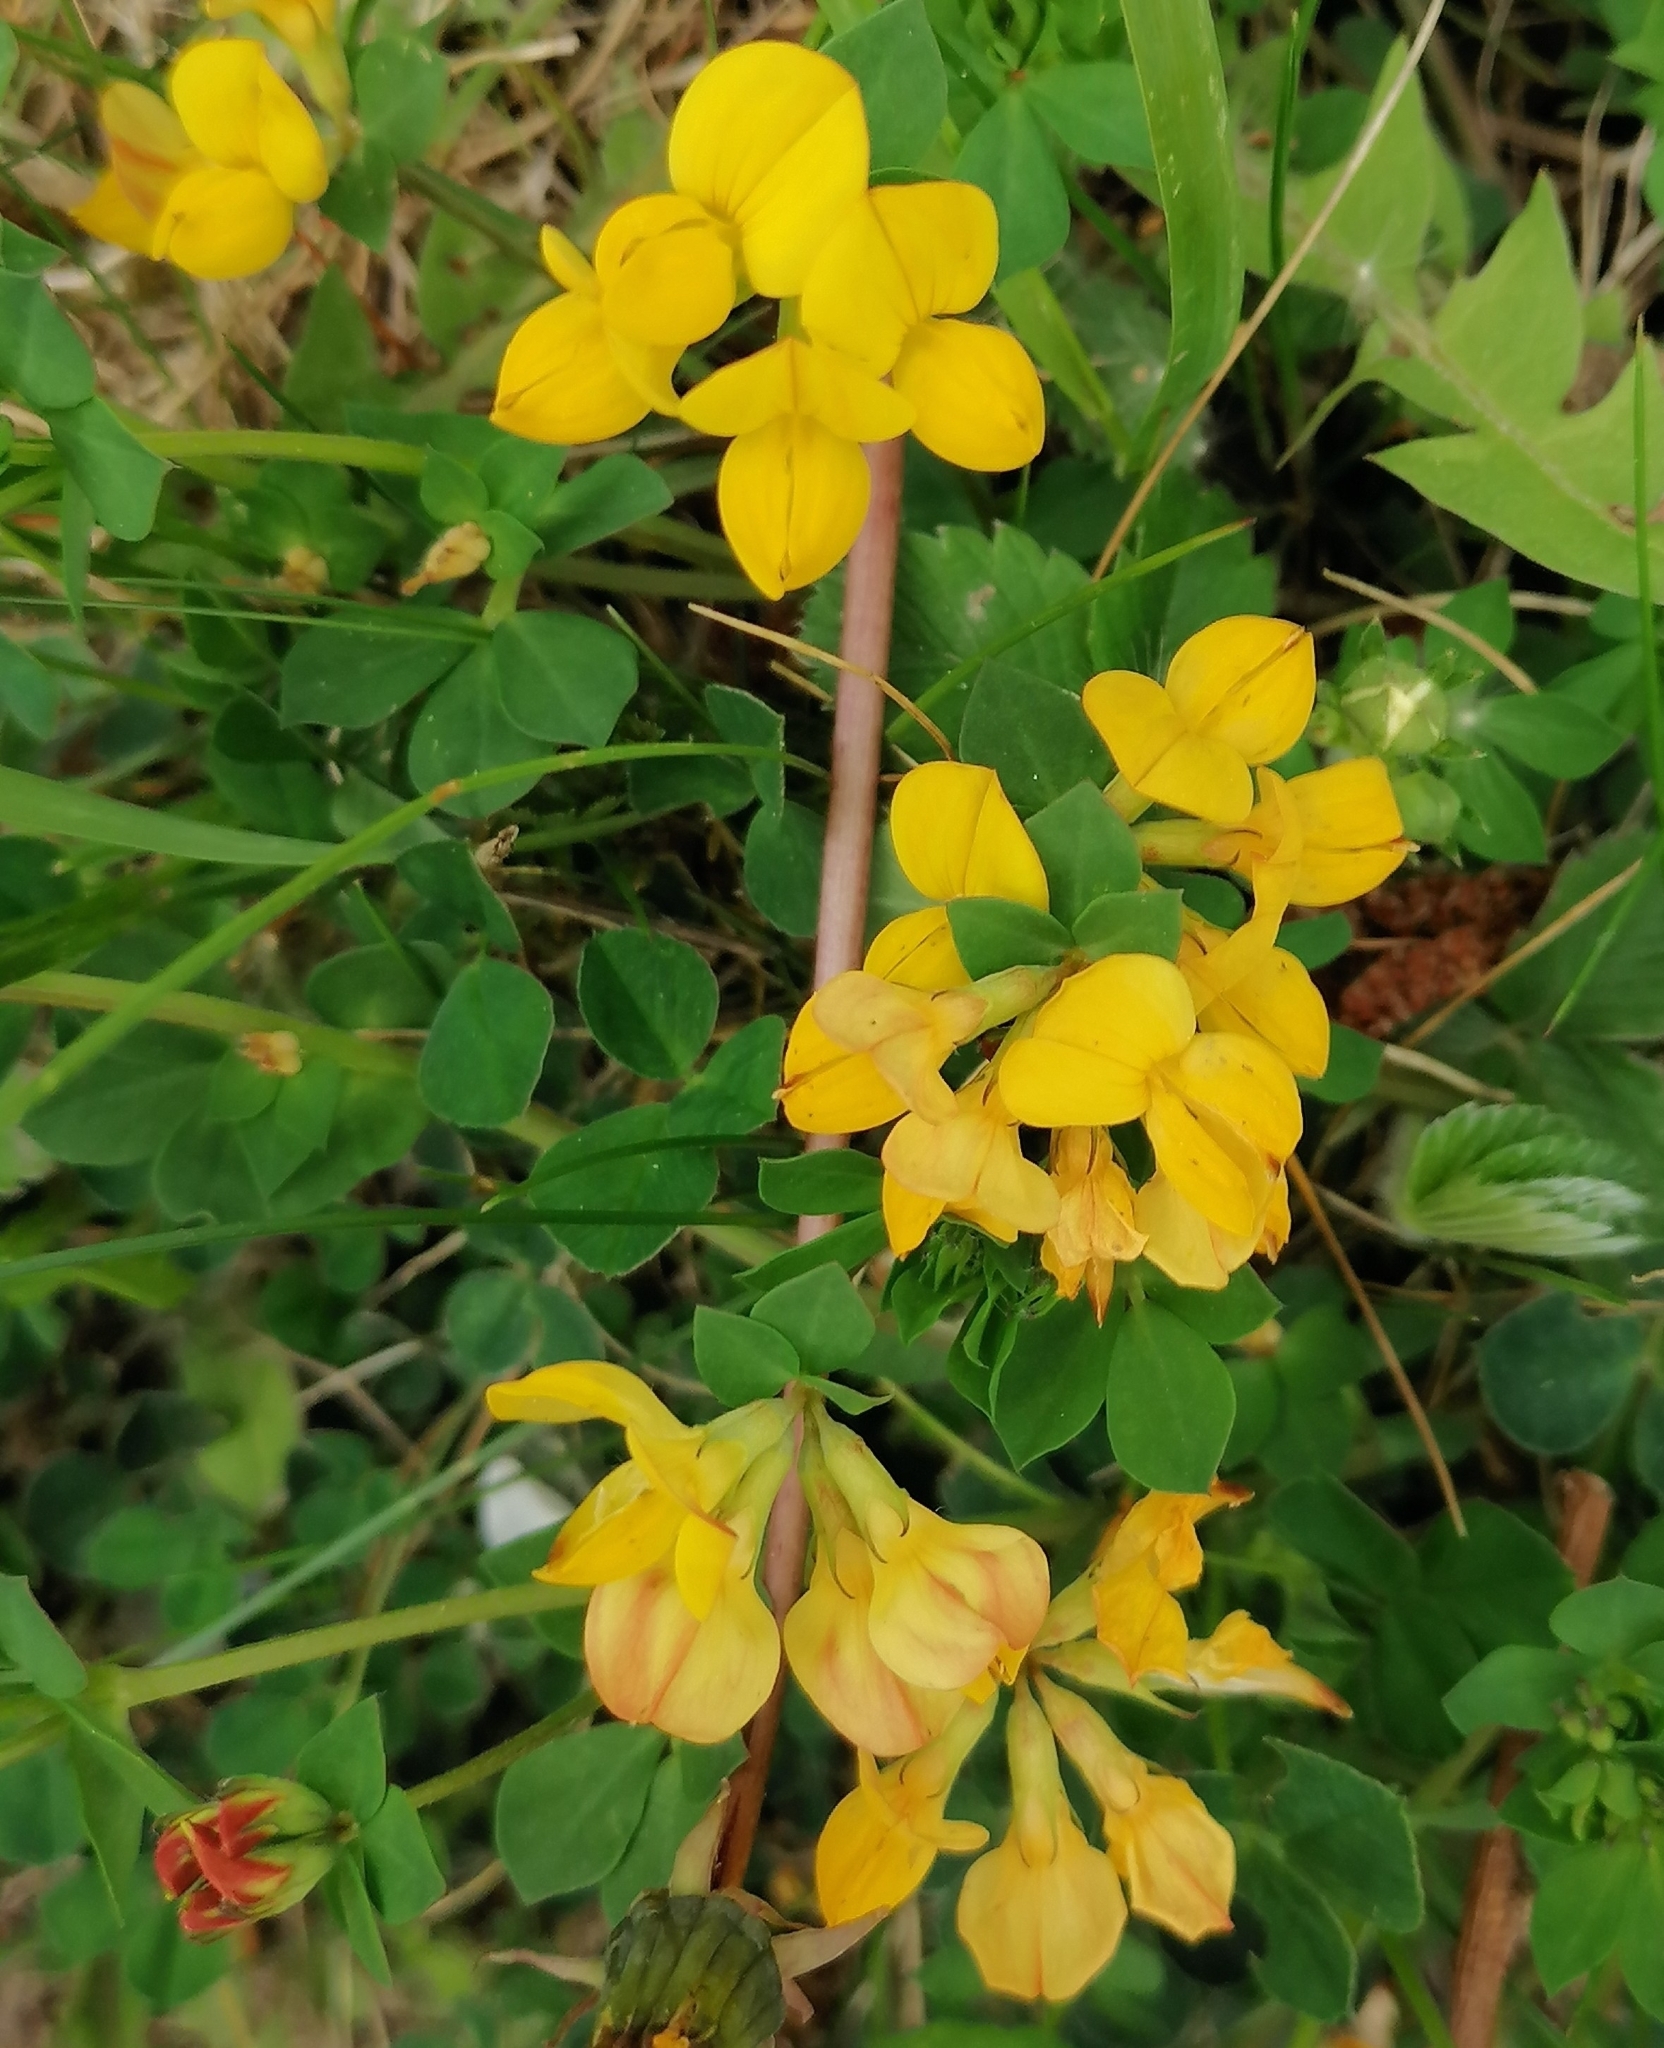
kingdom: Plantae
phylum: Tracheophyta
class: Magnoliopsida
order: Fabales
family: Fabaceae
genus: Lotus
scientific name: Lotus corniculatus
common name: Common bird's-foot-trefoil
